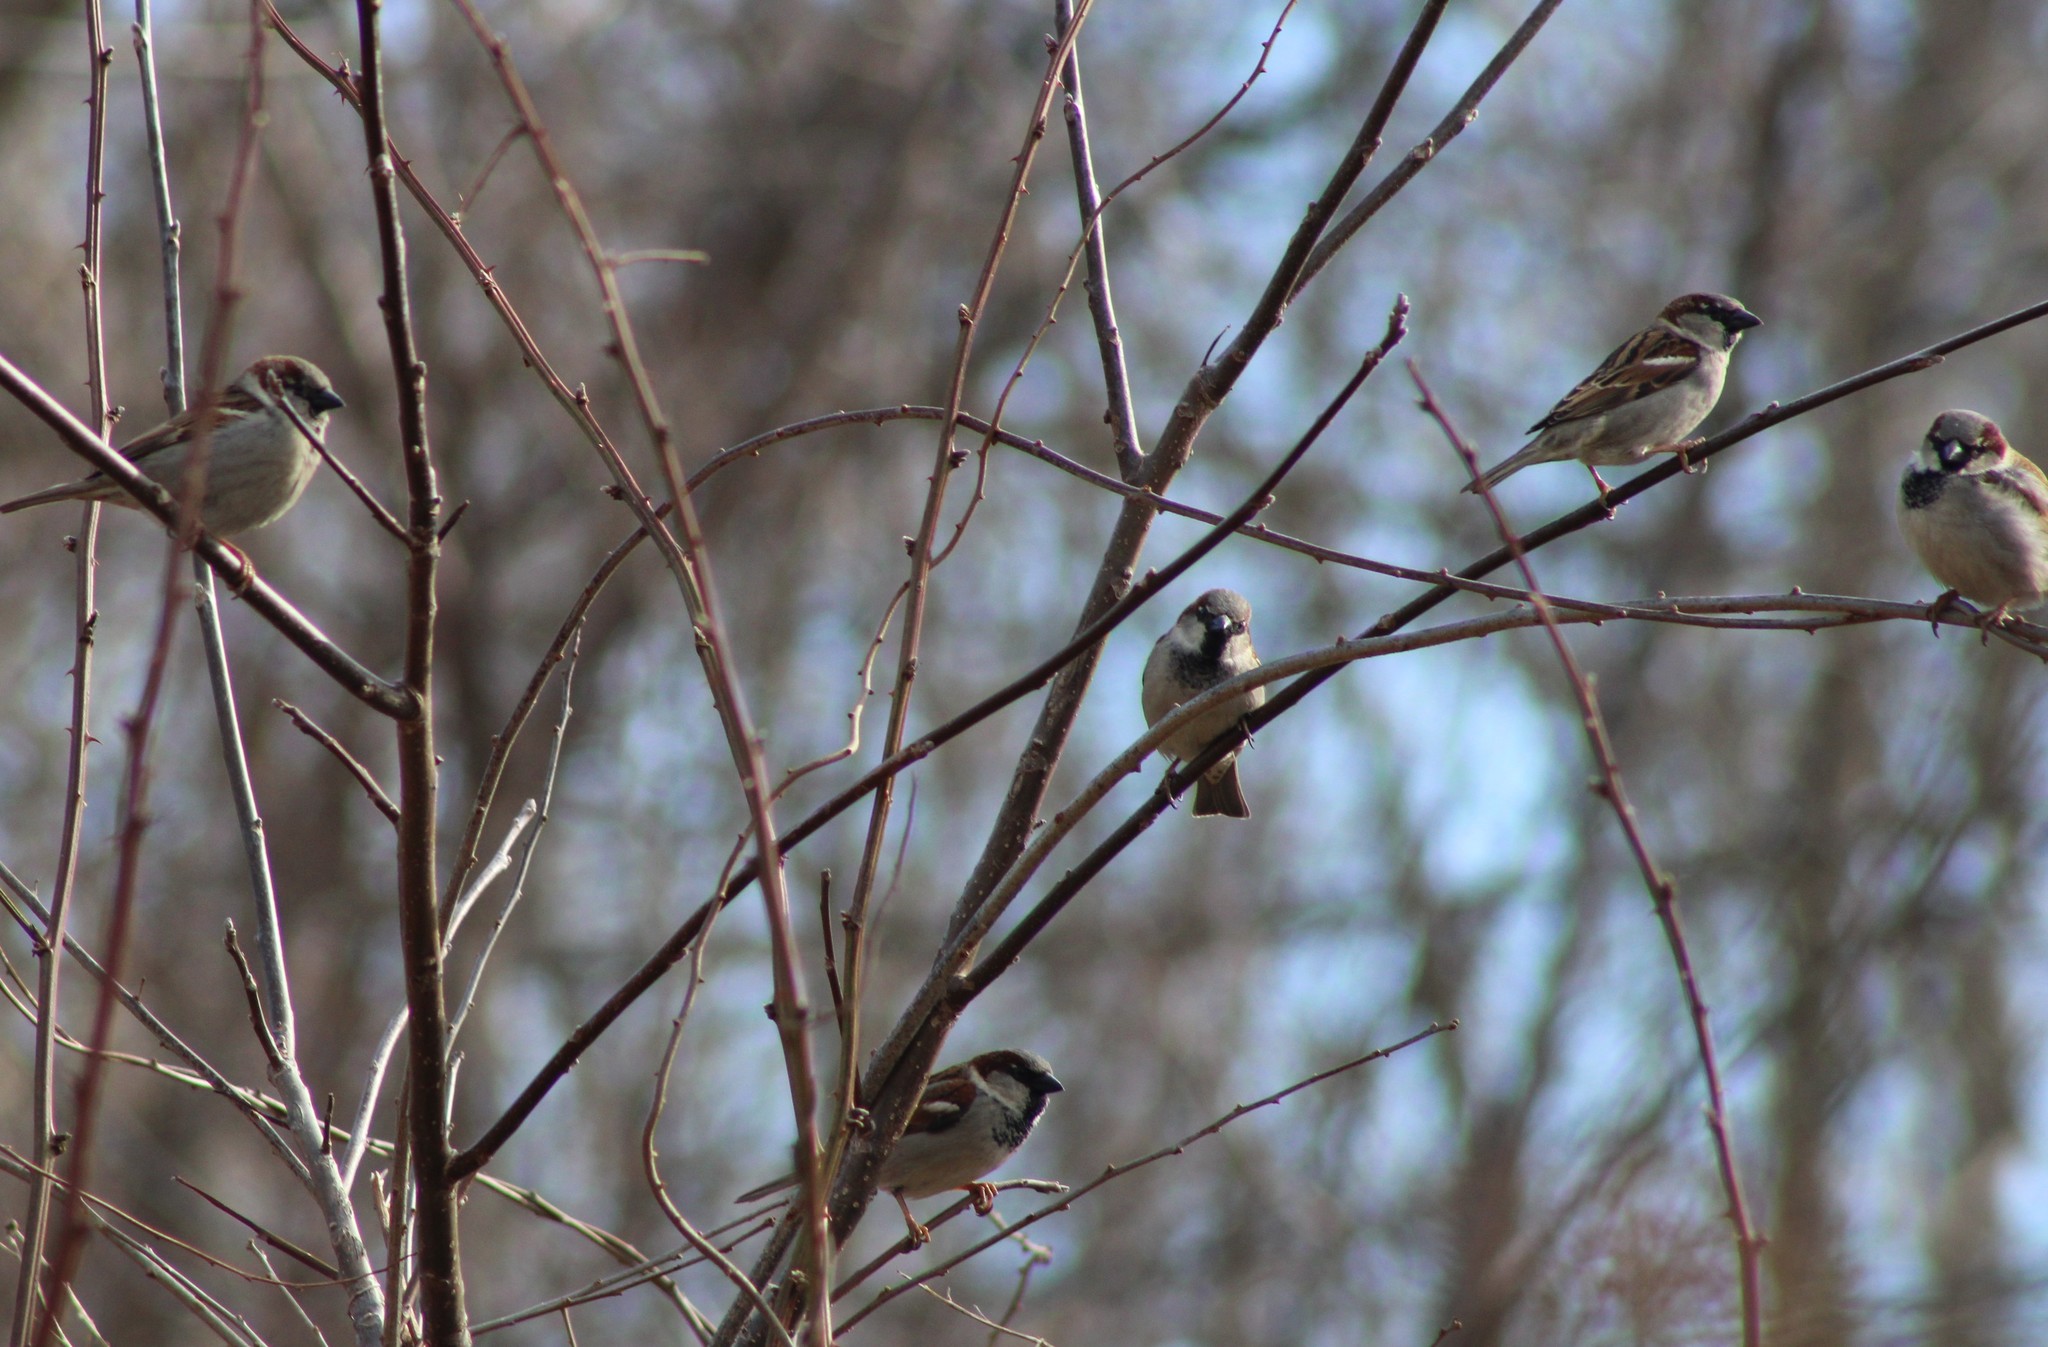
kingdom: Animalia
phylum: Chordata
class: Aves
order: Passeriformes
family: Passeridae
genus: Passer
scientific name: Passer domesticus
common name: House sparrow
